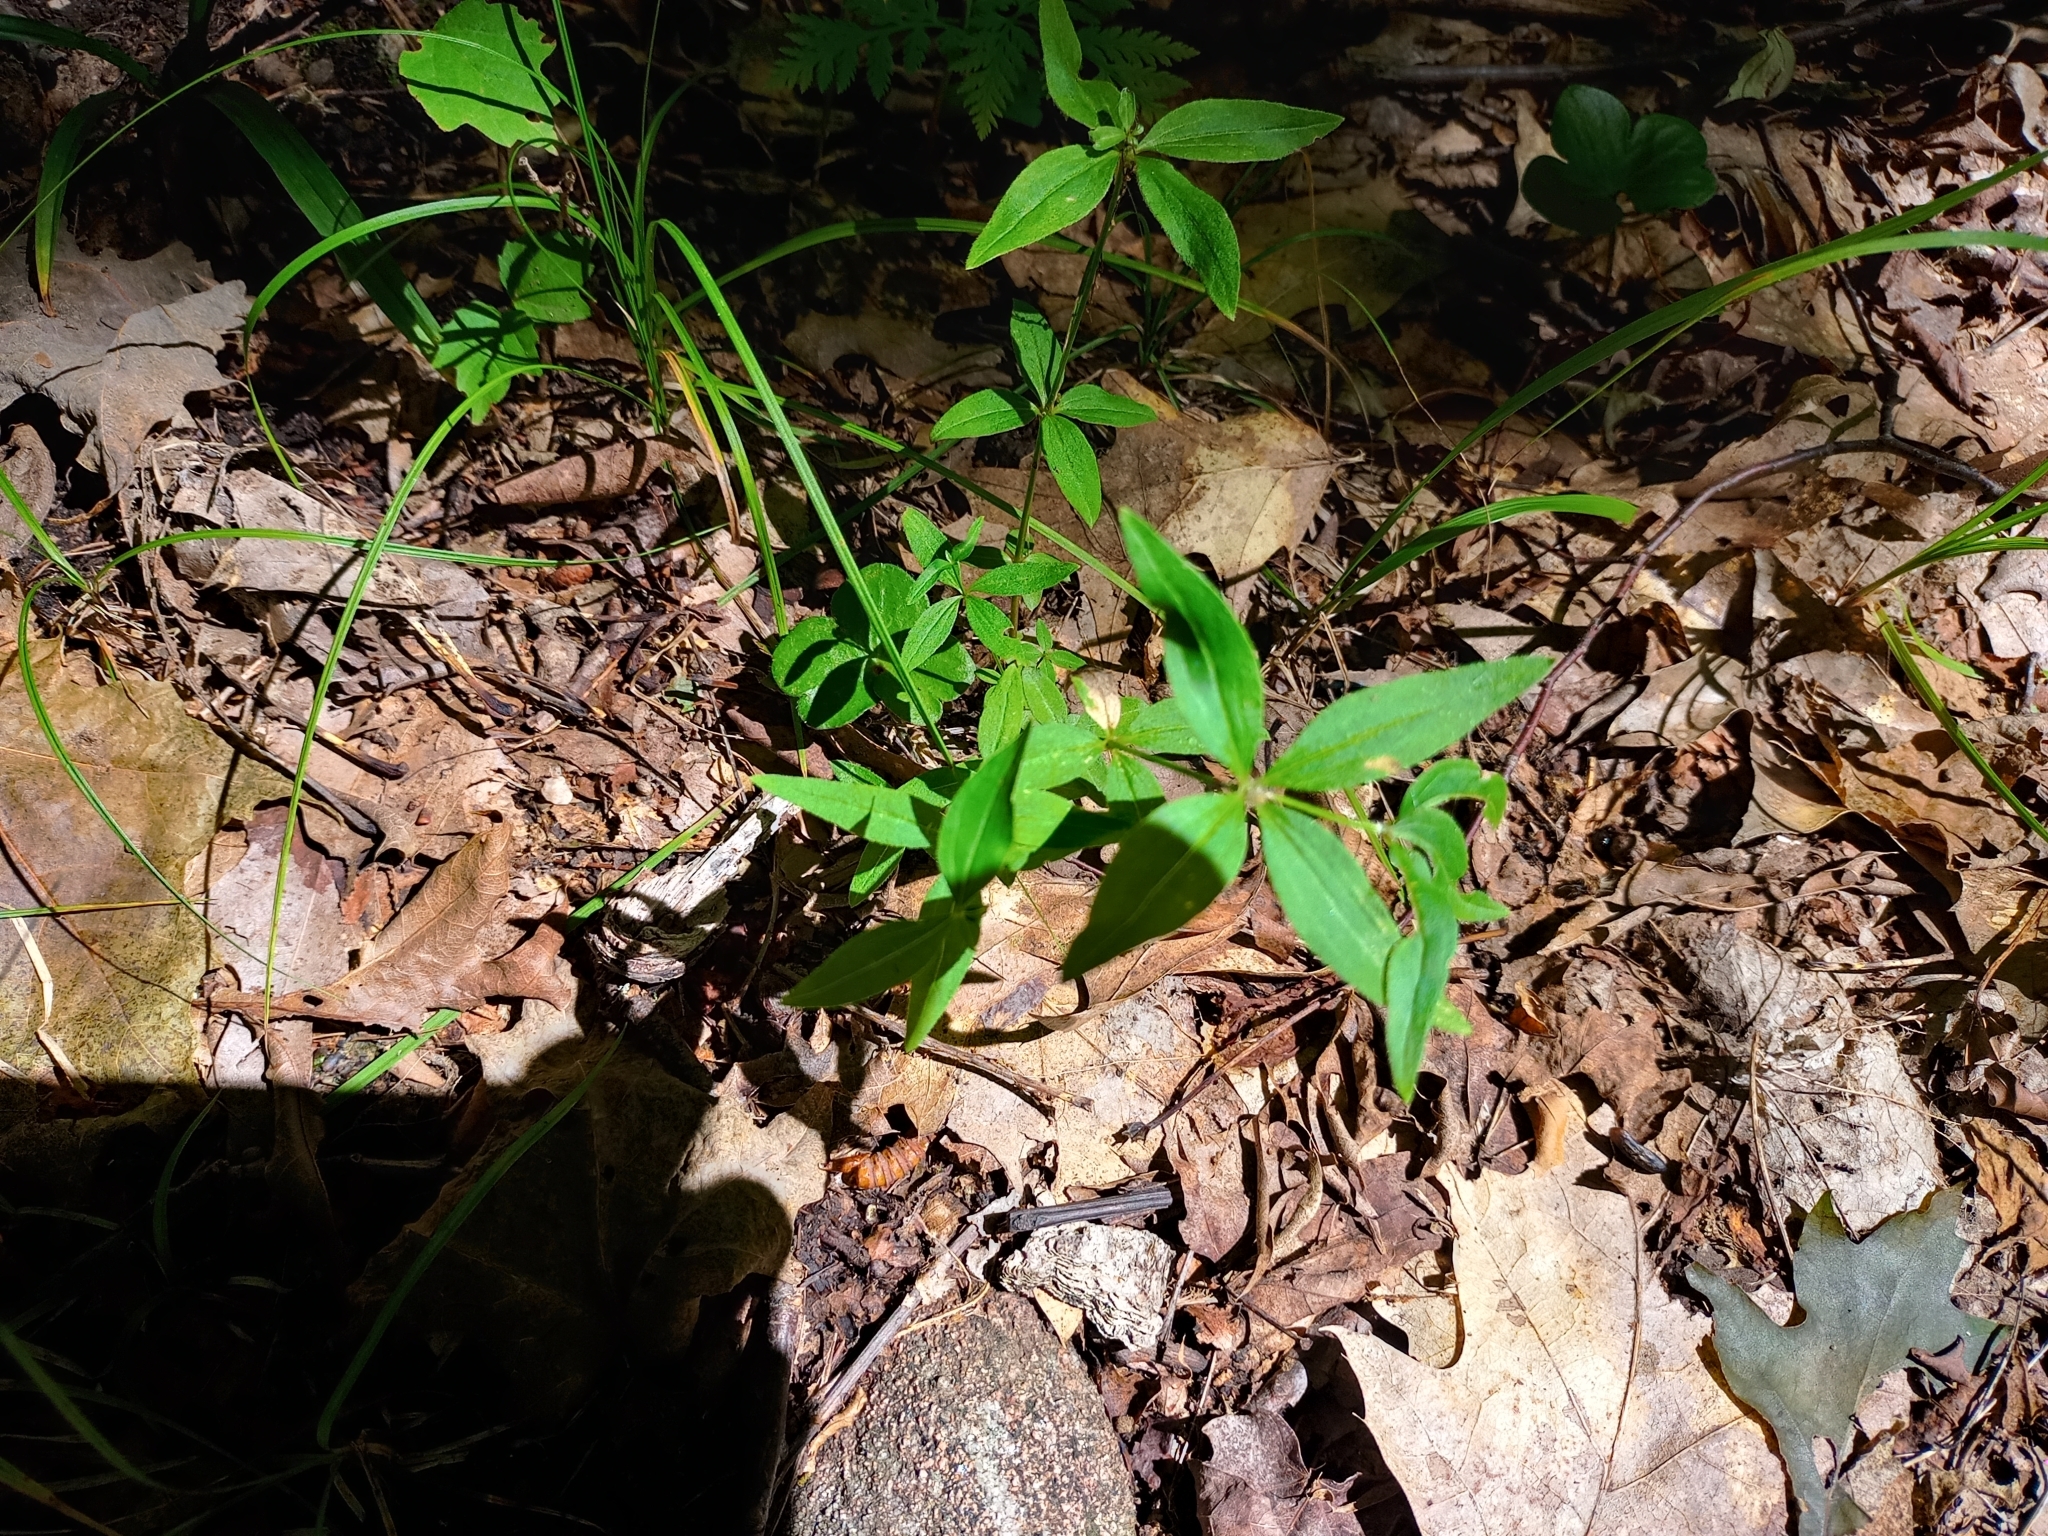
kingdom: Plantae
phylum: Tracheophyta
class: Magnoliopsida
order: Gentianales
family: Rubiaceae
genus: Galium
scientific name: Galium lanceolatum
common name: Lance-leaved wild licorice
